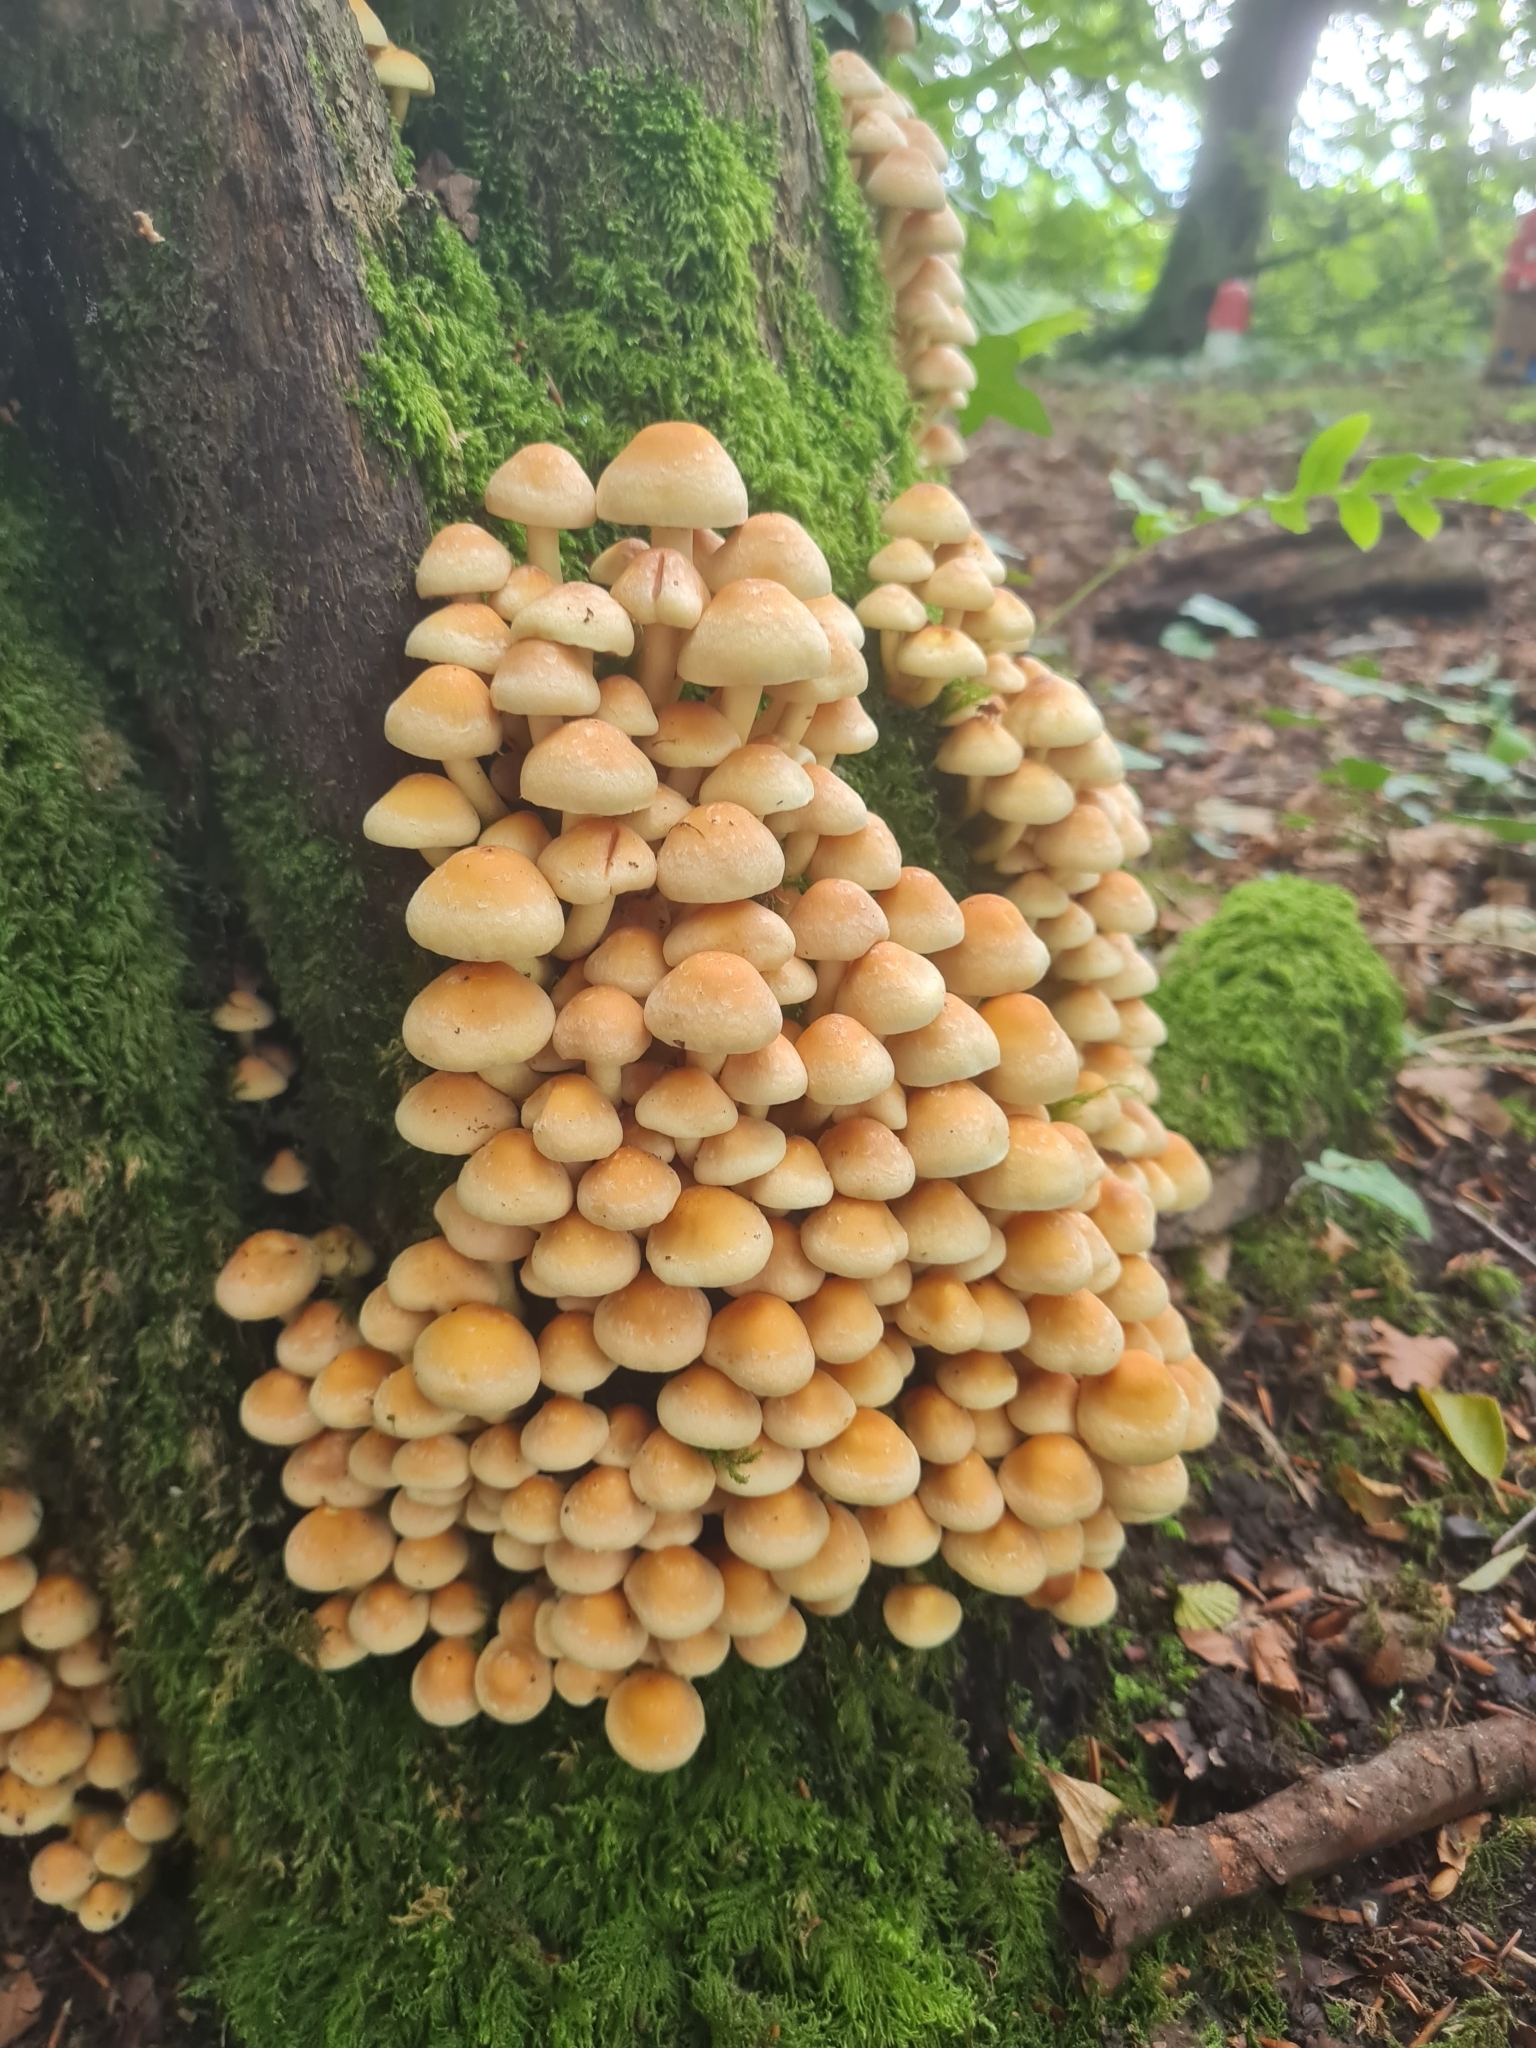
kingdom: Fungi
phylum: Basidiomycota
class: Agaricomycetes
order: Agaricales
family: Strophariaceae
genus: Hypholoma
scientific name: Hypholoma fasciculare
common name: Sulphur tuft
